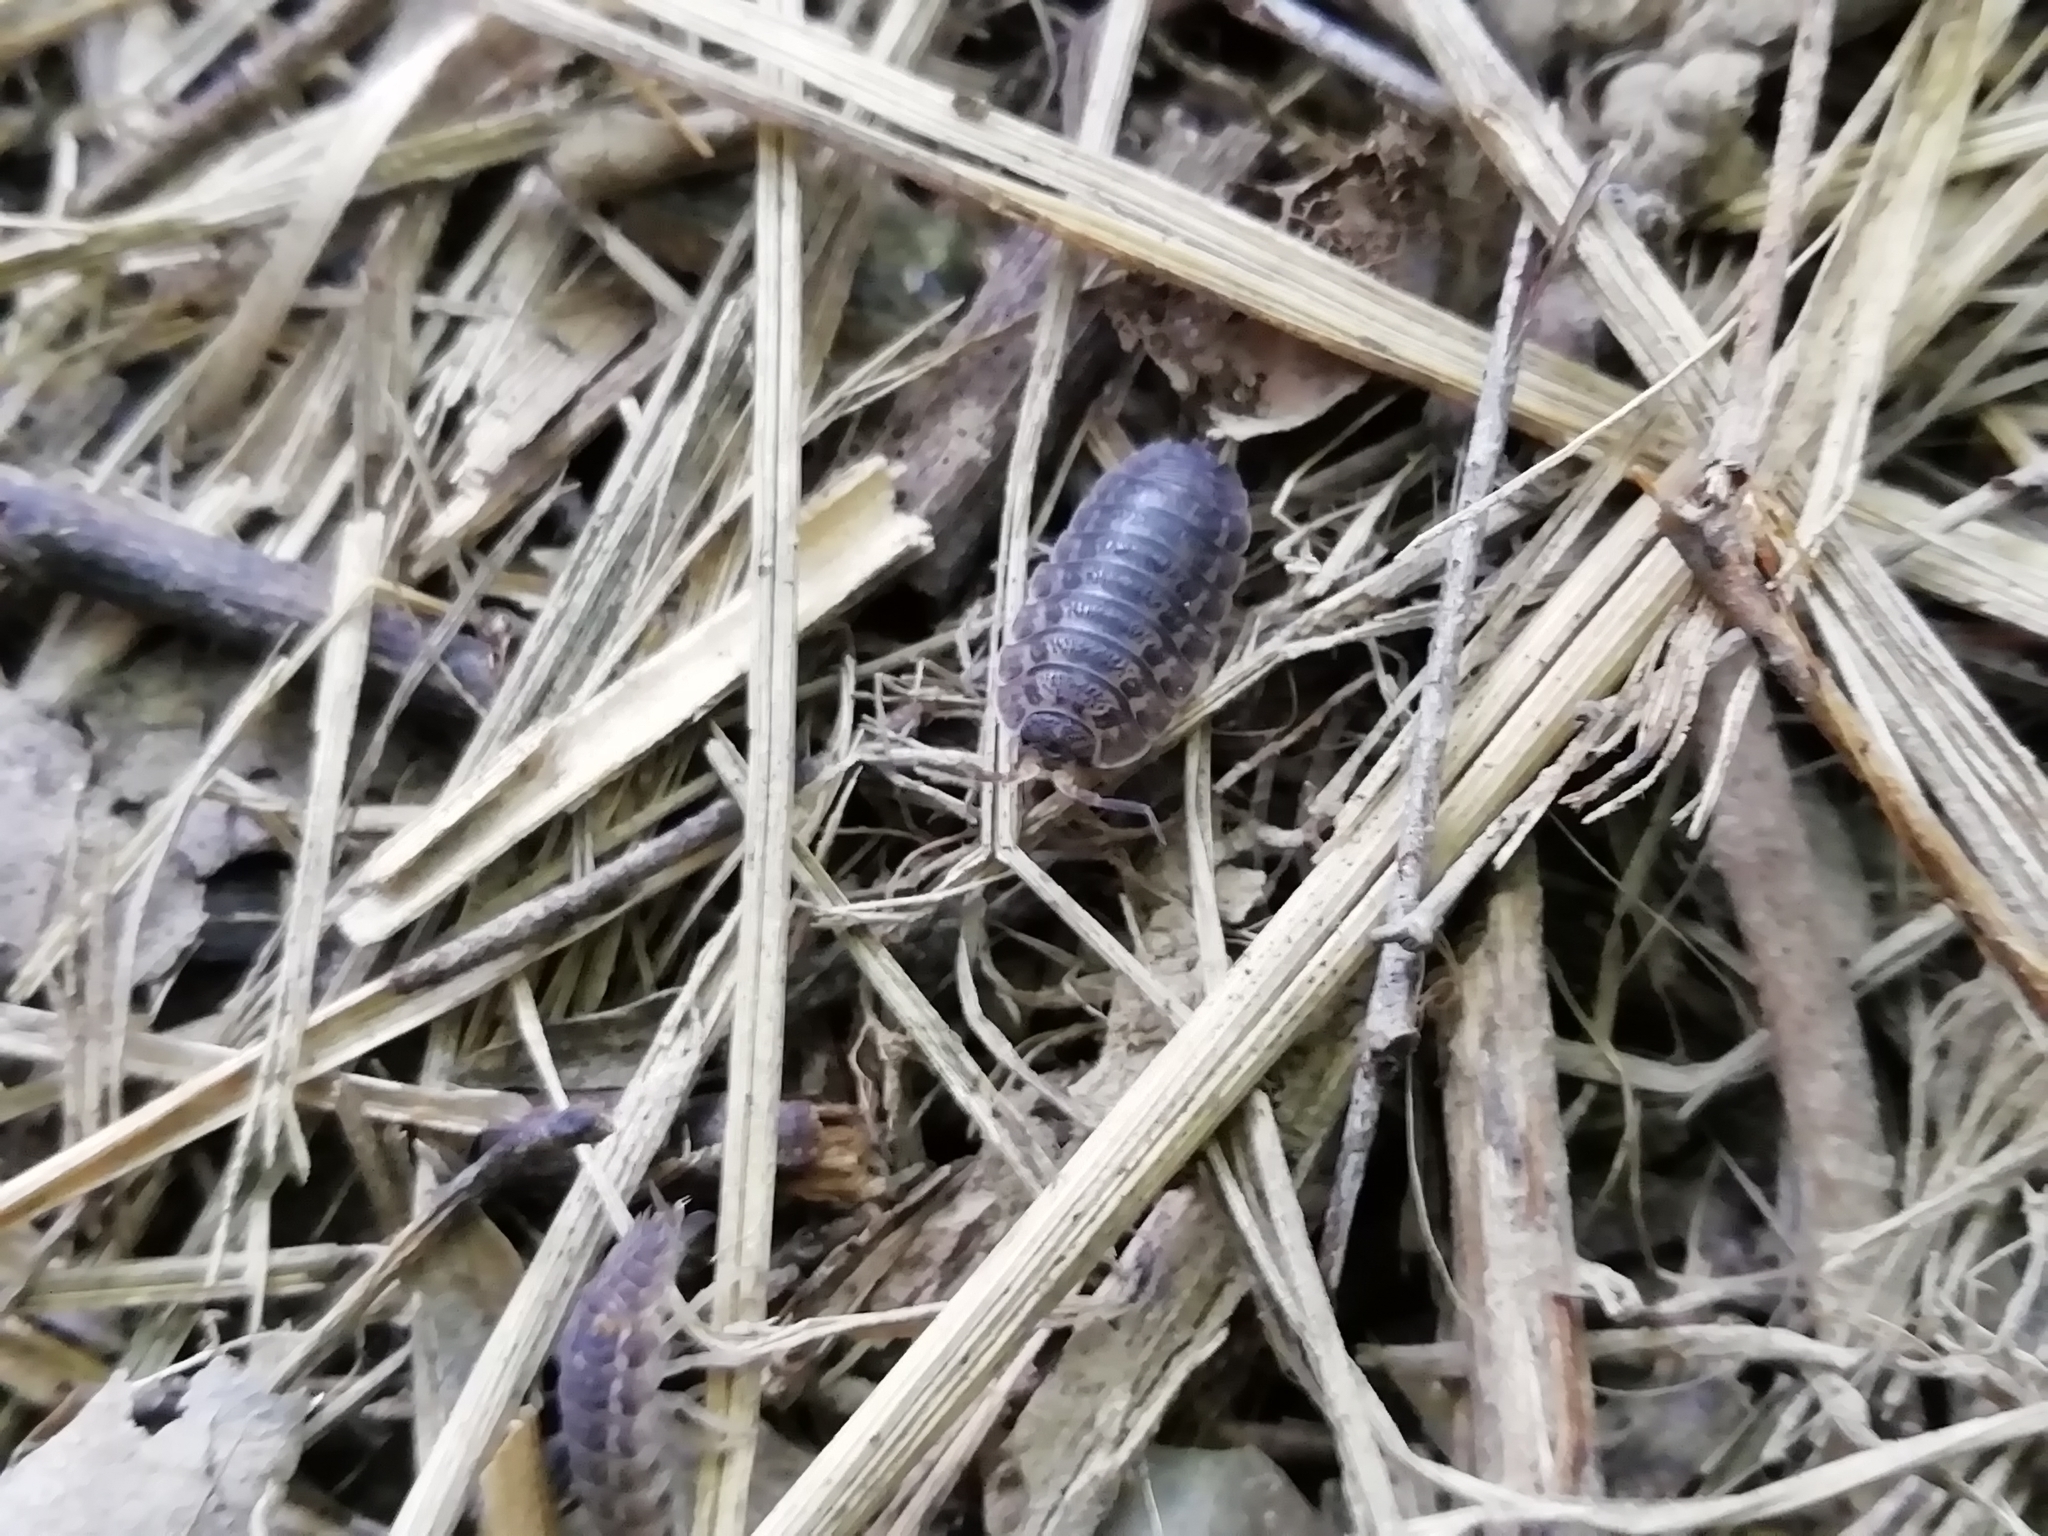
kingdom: Animalia
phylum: Arthropoda
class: Malacostraca
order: Isopoda
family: Trachelipodidae
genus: Trachelipus
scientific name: Trachelipus rathkii
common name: Isopod
